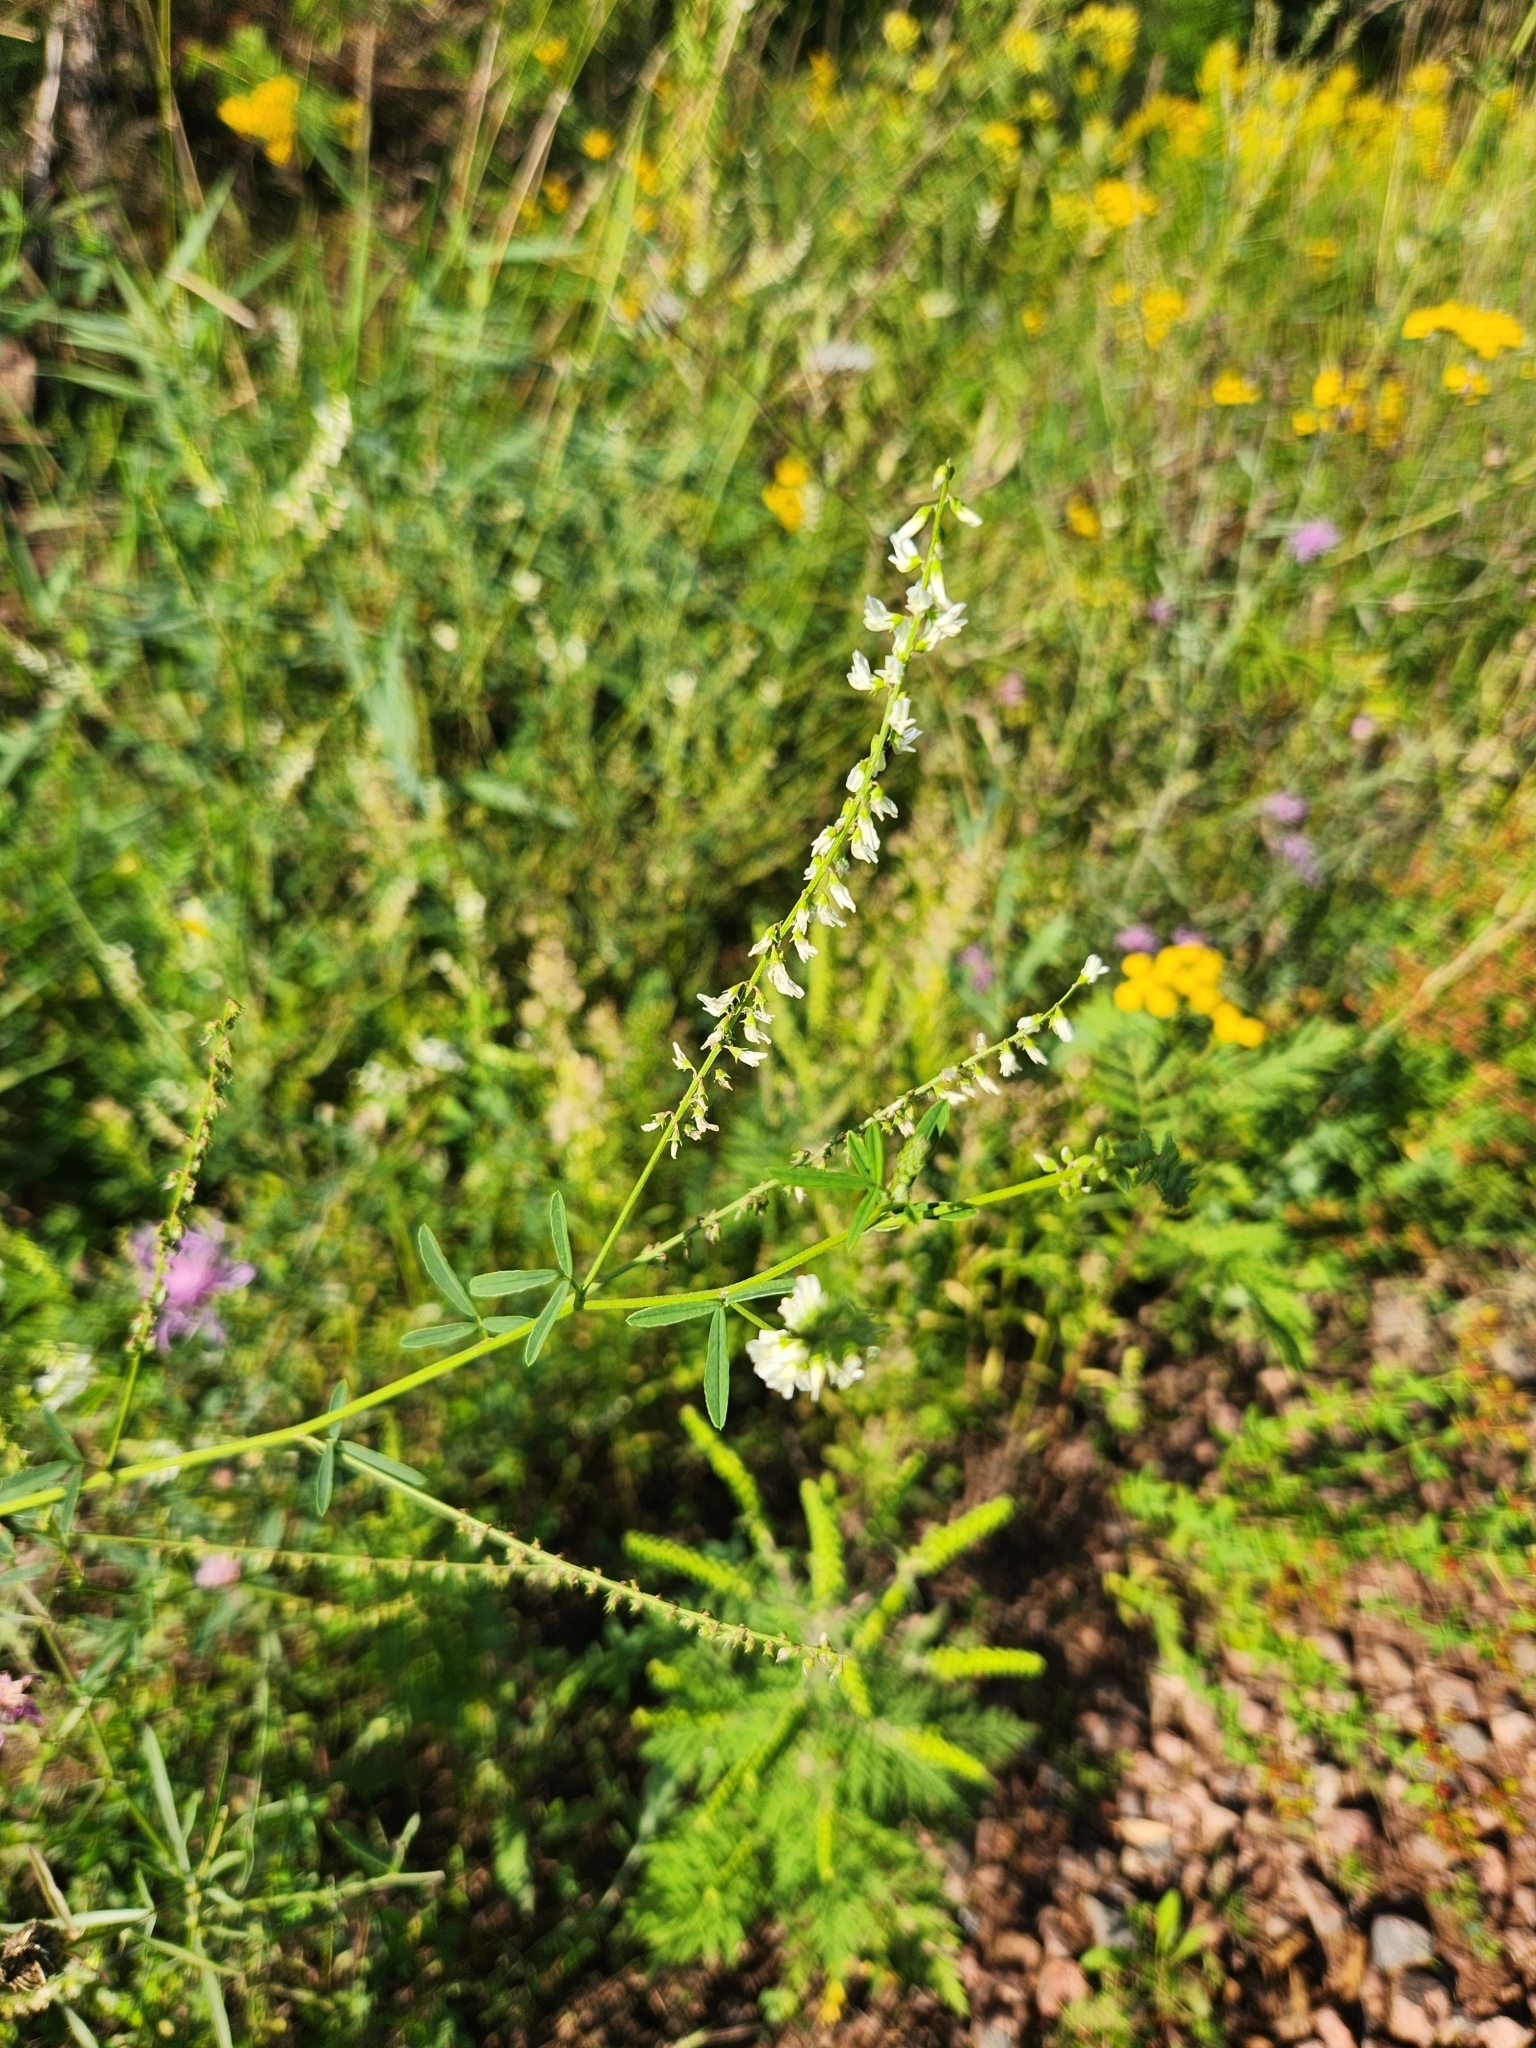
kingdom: Plantae
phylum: Tracheophyta
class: Magnoliopsida
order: Fabales
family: Fabaceae
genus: Melilotus
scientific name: Melilotus albus
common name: White melilot
